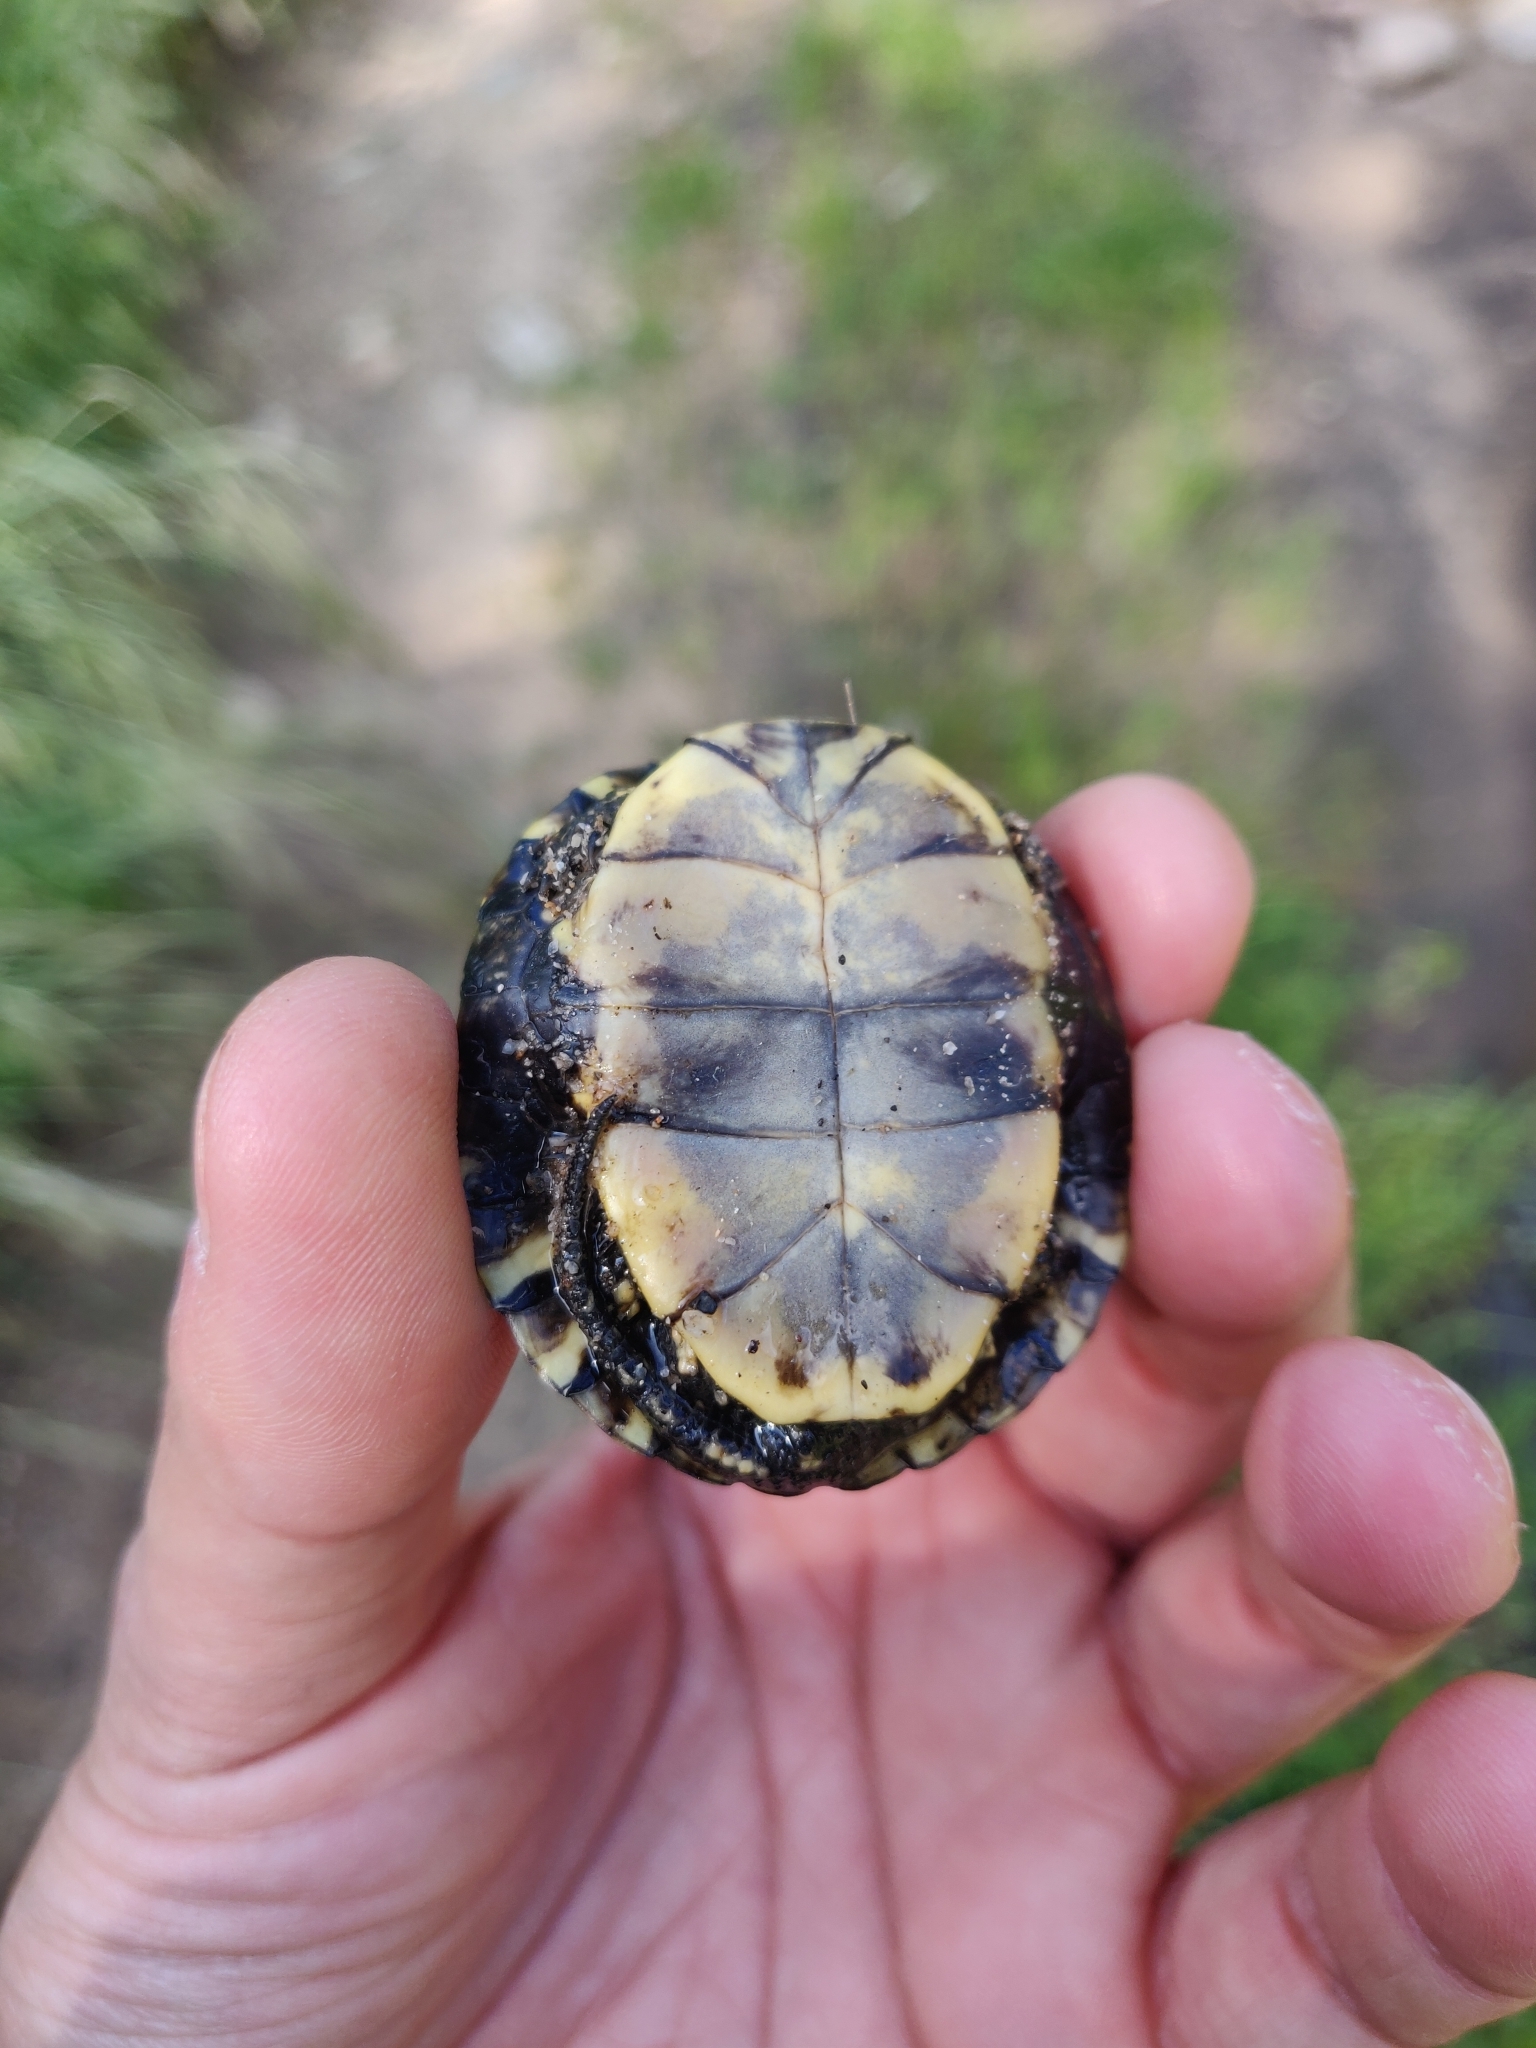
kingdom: Animalia
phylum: Chordata
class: Testudines
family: Emydidae
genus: Emys
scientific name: Emys orbicularis
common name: European pond turtle
